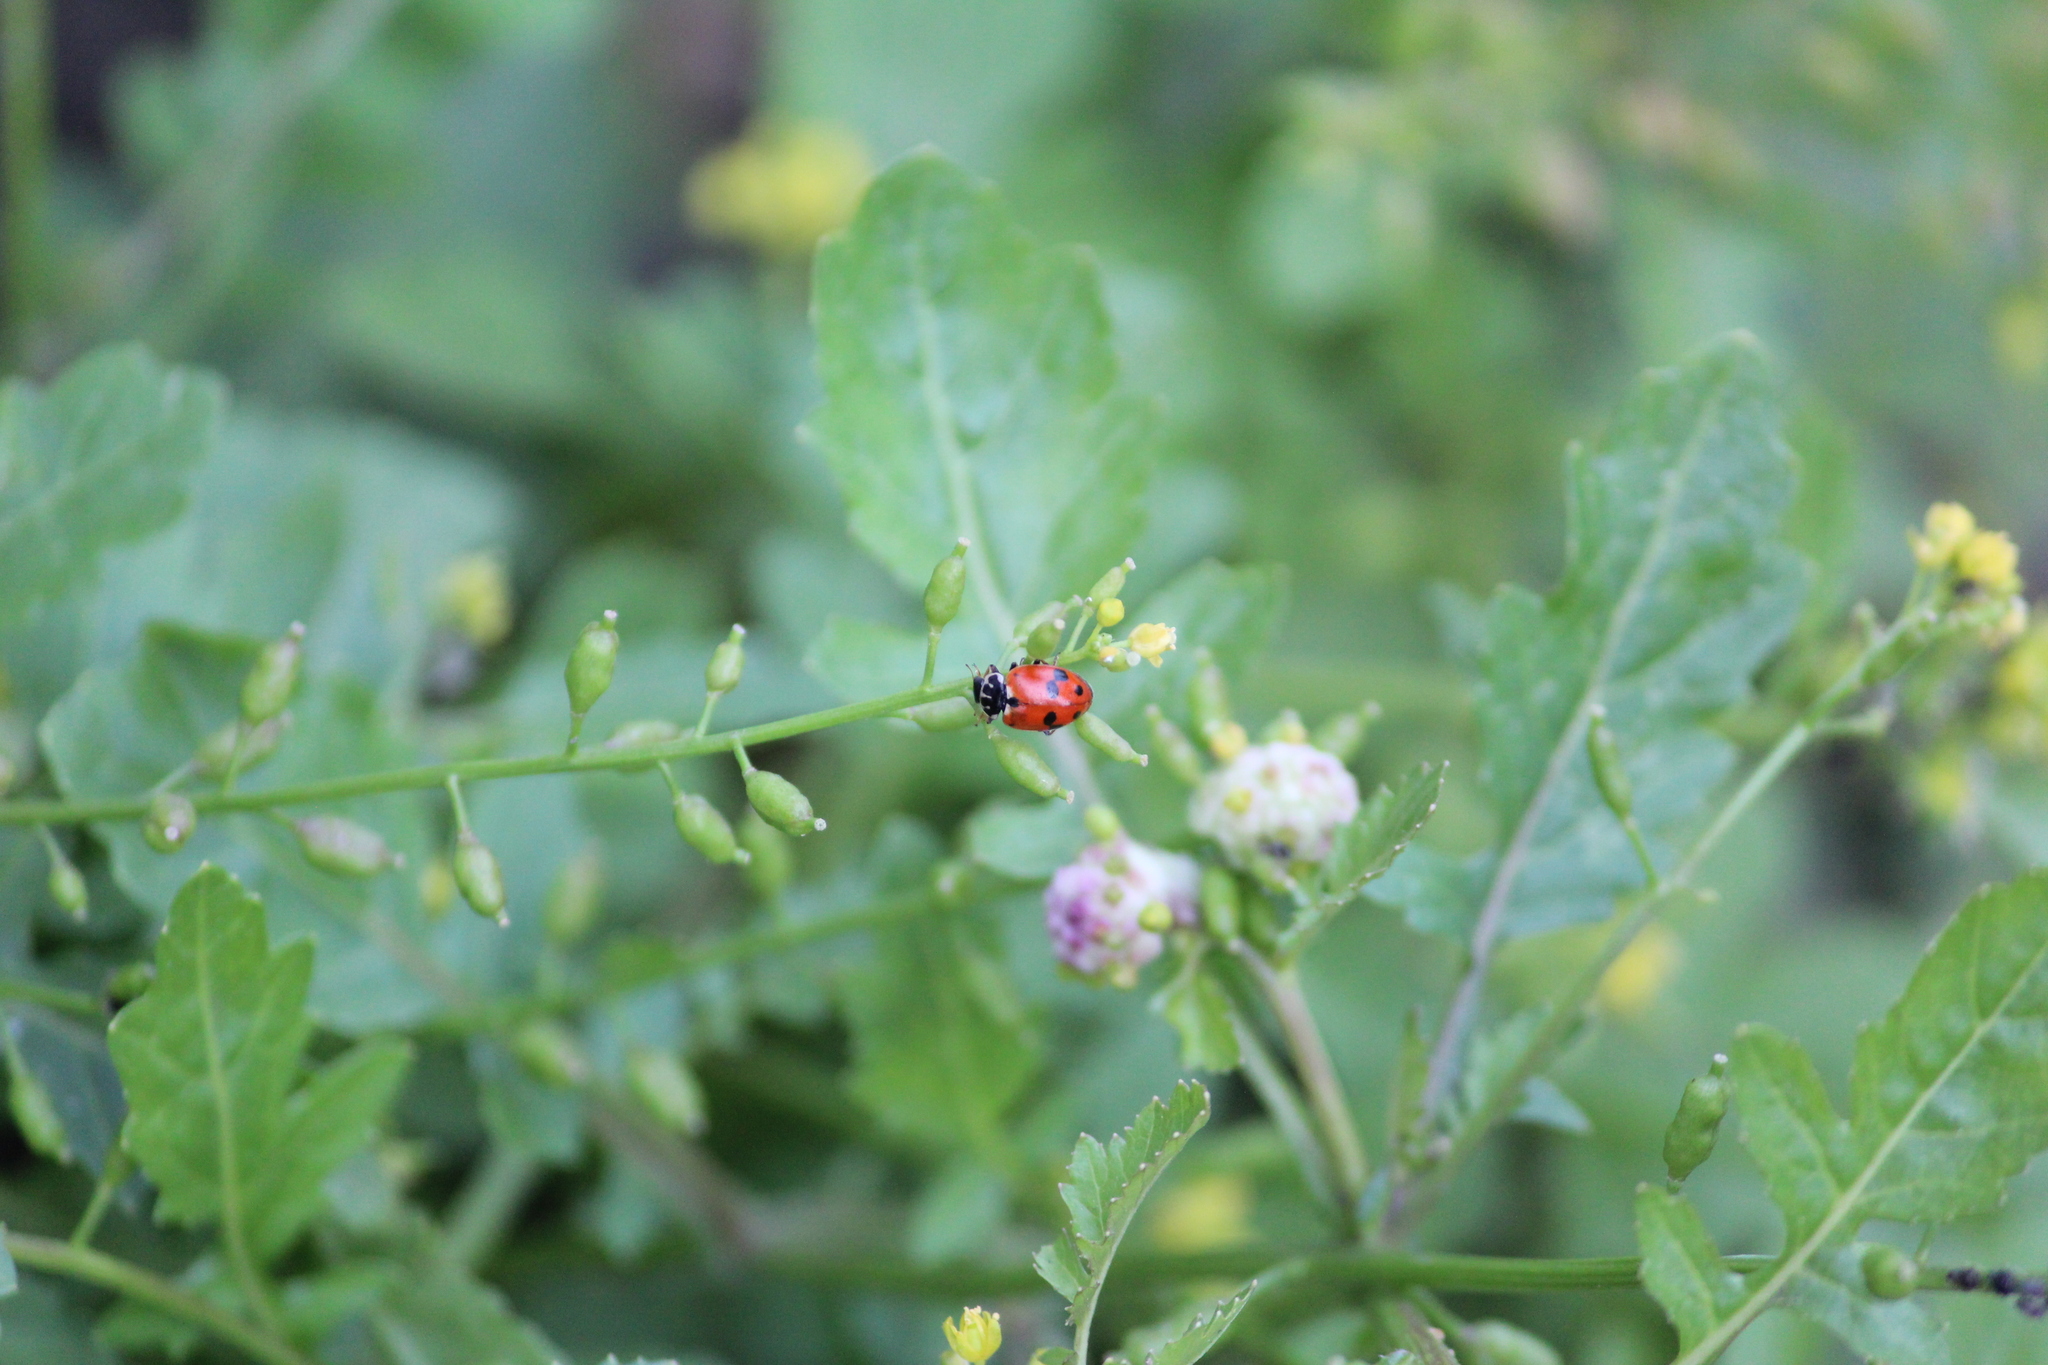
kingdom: Animalia
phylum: Arthropoda
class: Insecta
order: Coleoptera
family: Coccinellidae
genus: Hippodamia
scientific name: Hippodamia variegata
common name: Ladybird beetle
